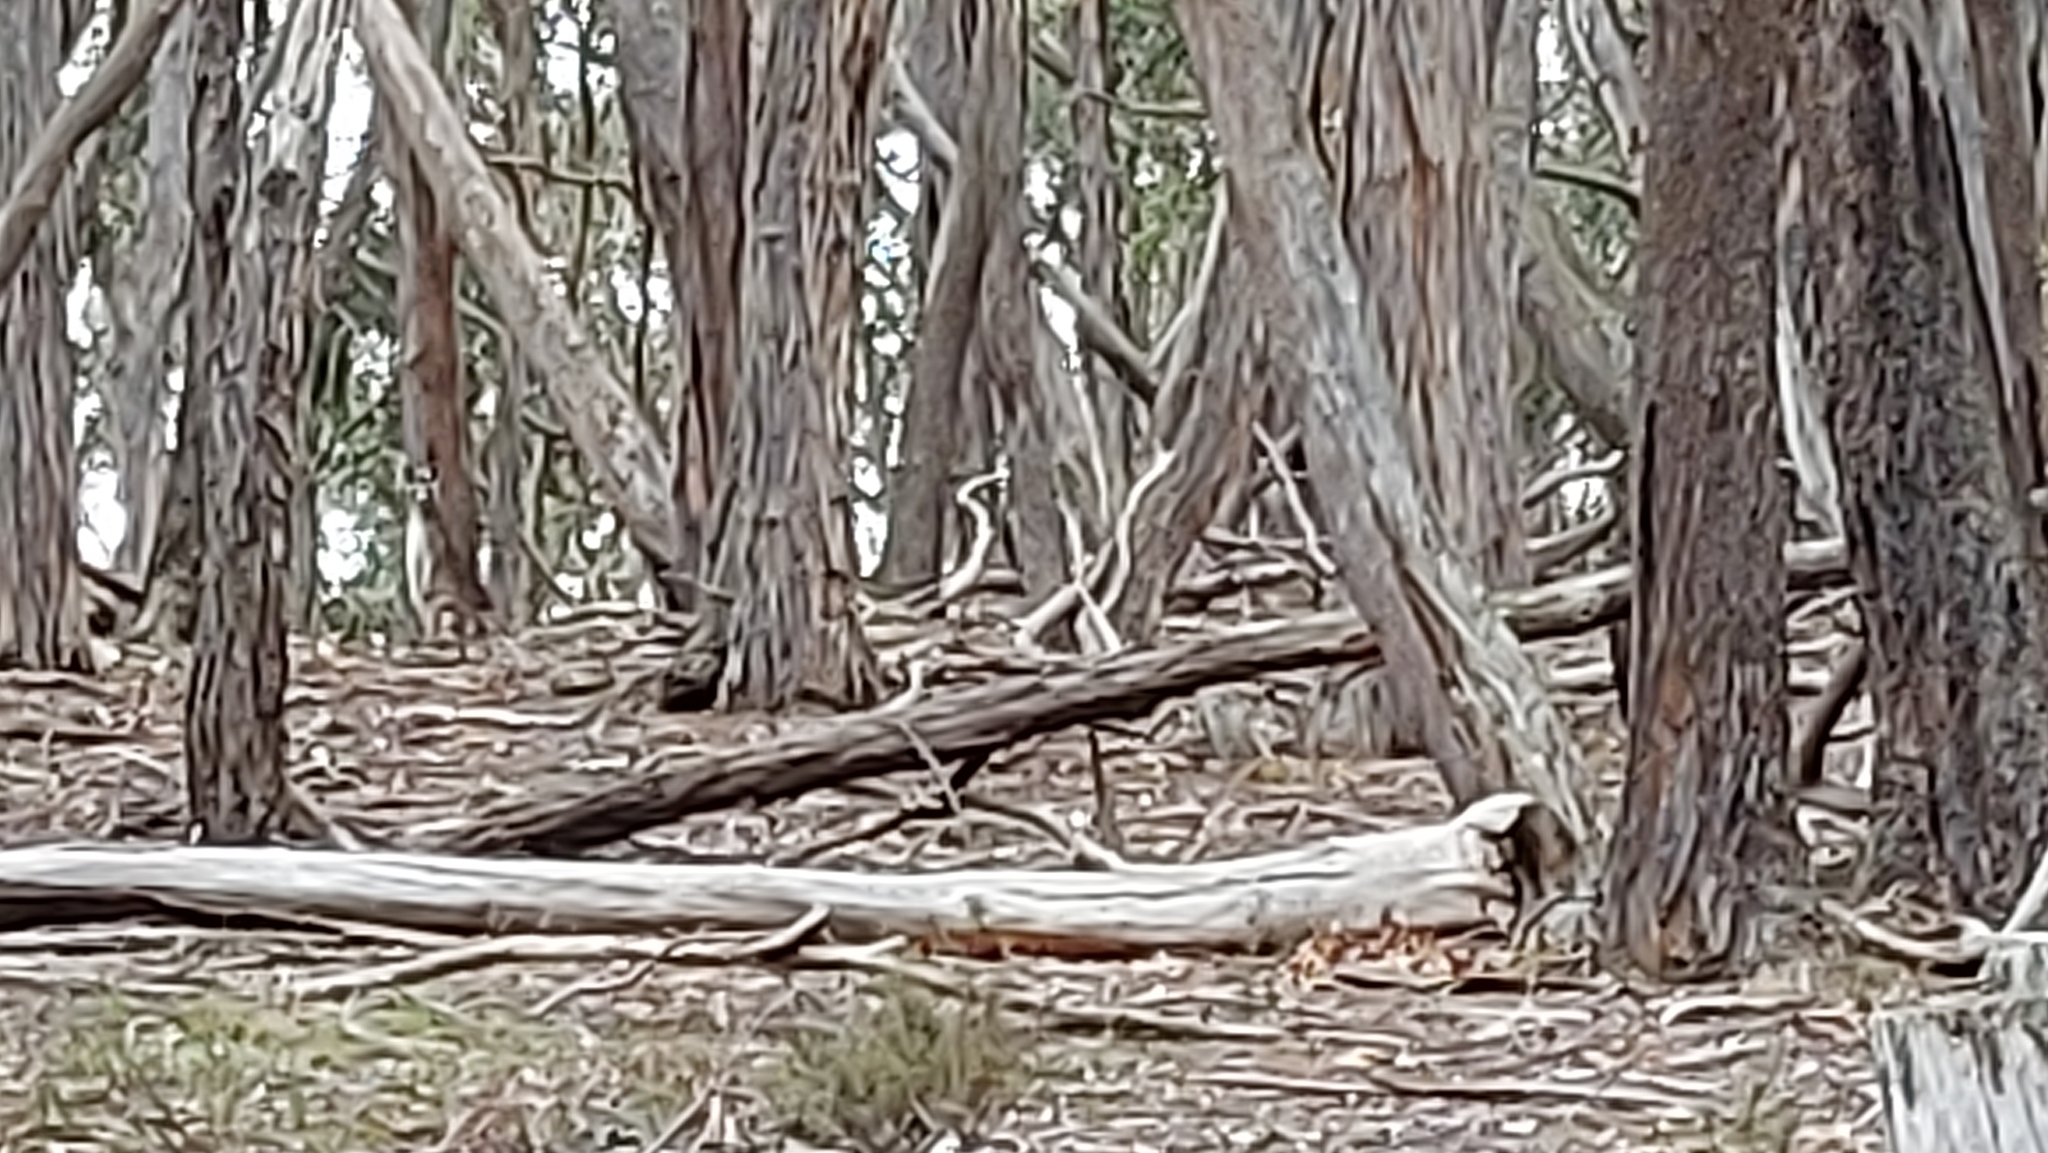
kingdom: Animalia
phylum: Chordata
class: Mammalia
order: Diprotodontia
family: Macropodidae
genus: Macropus
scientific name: Macropus giganteus
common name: Eastern grey kangaroo
